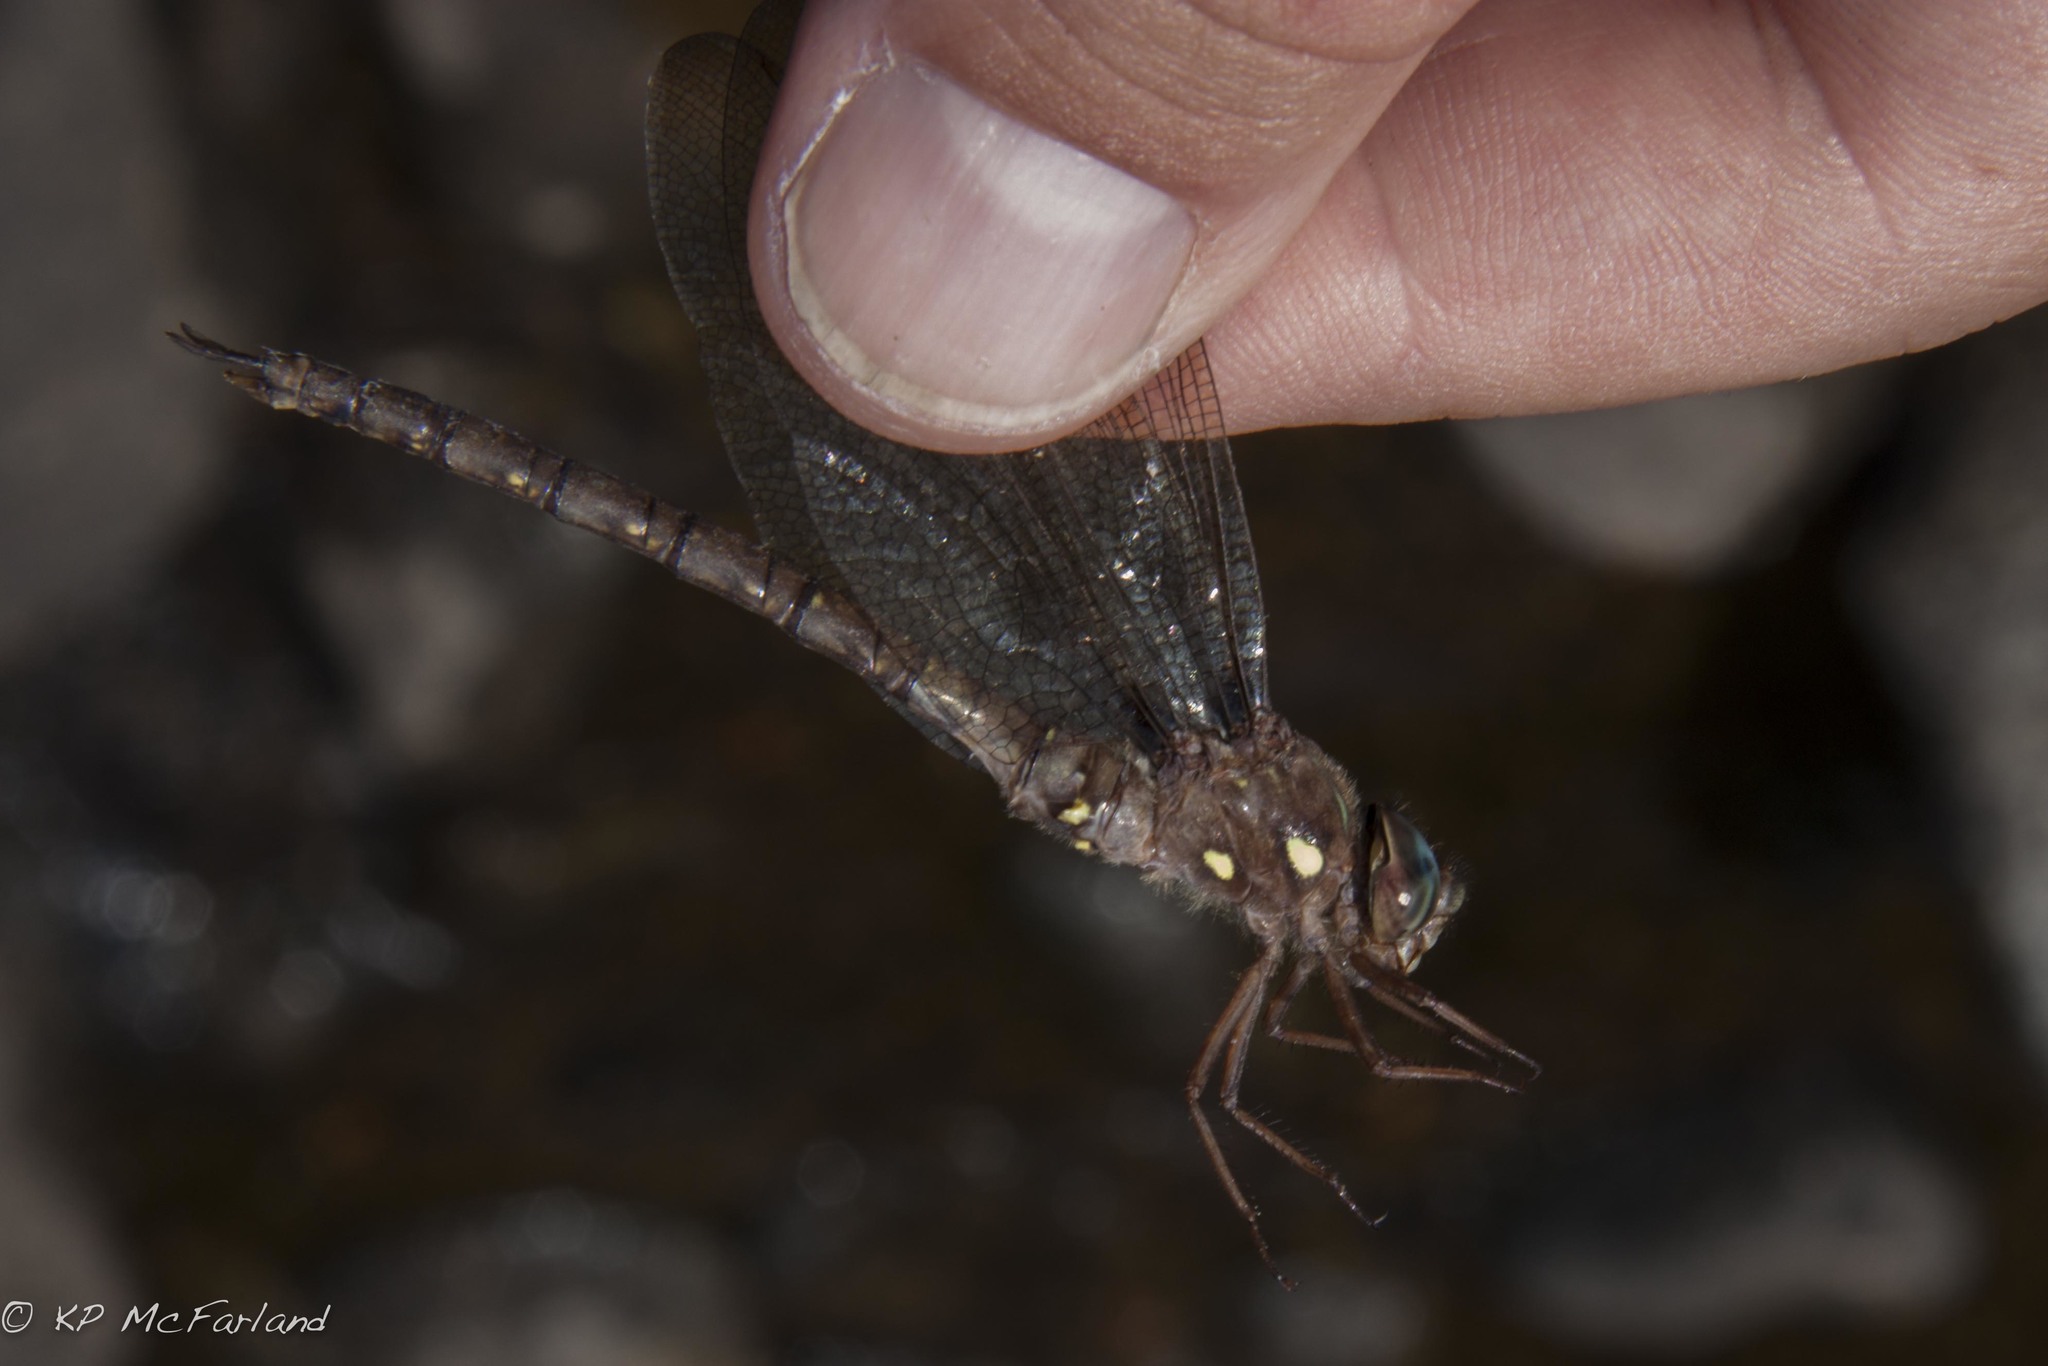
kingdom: Animalia
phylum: Arthropoda
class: Insecta
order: Odonata
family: Aeshnidae
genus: Boyeria
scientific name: Boyeria vinosa
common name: Fawn darner
